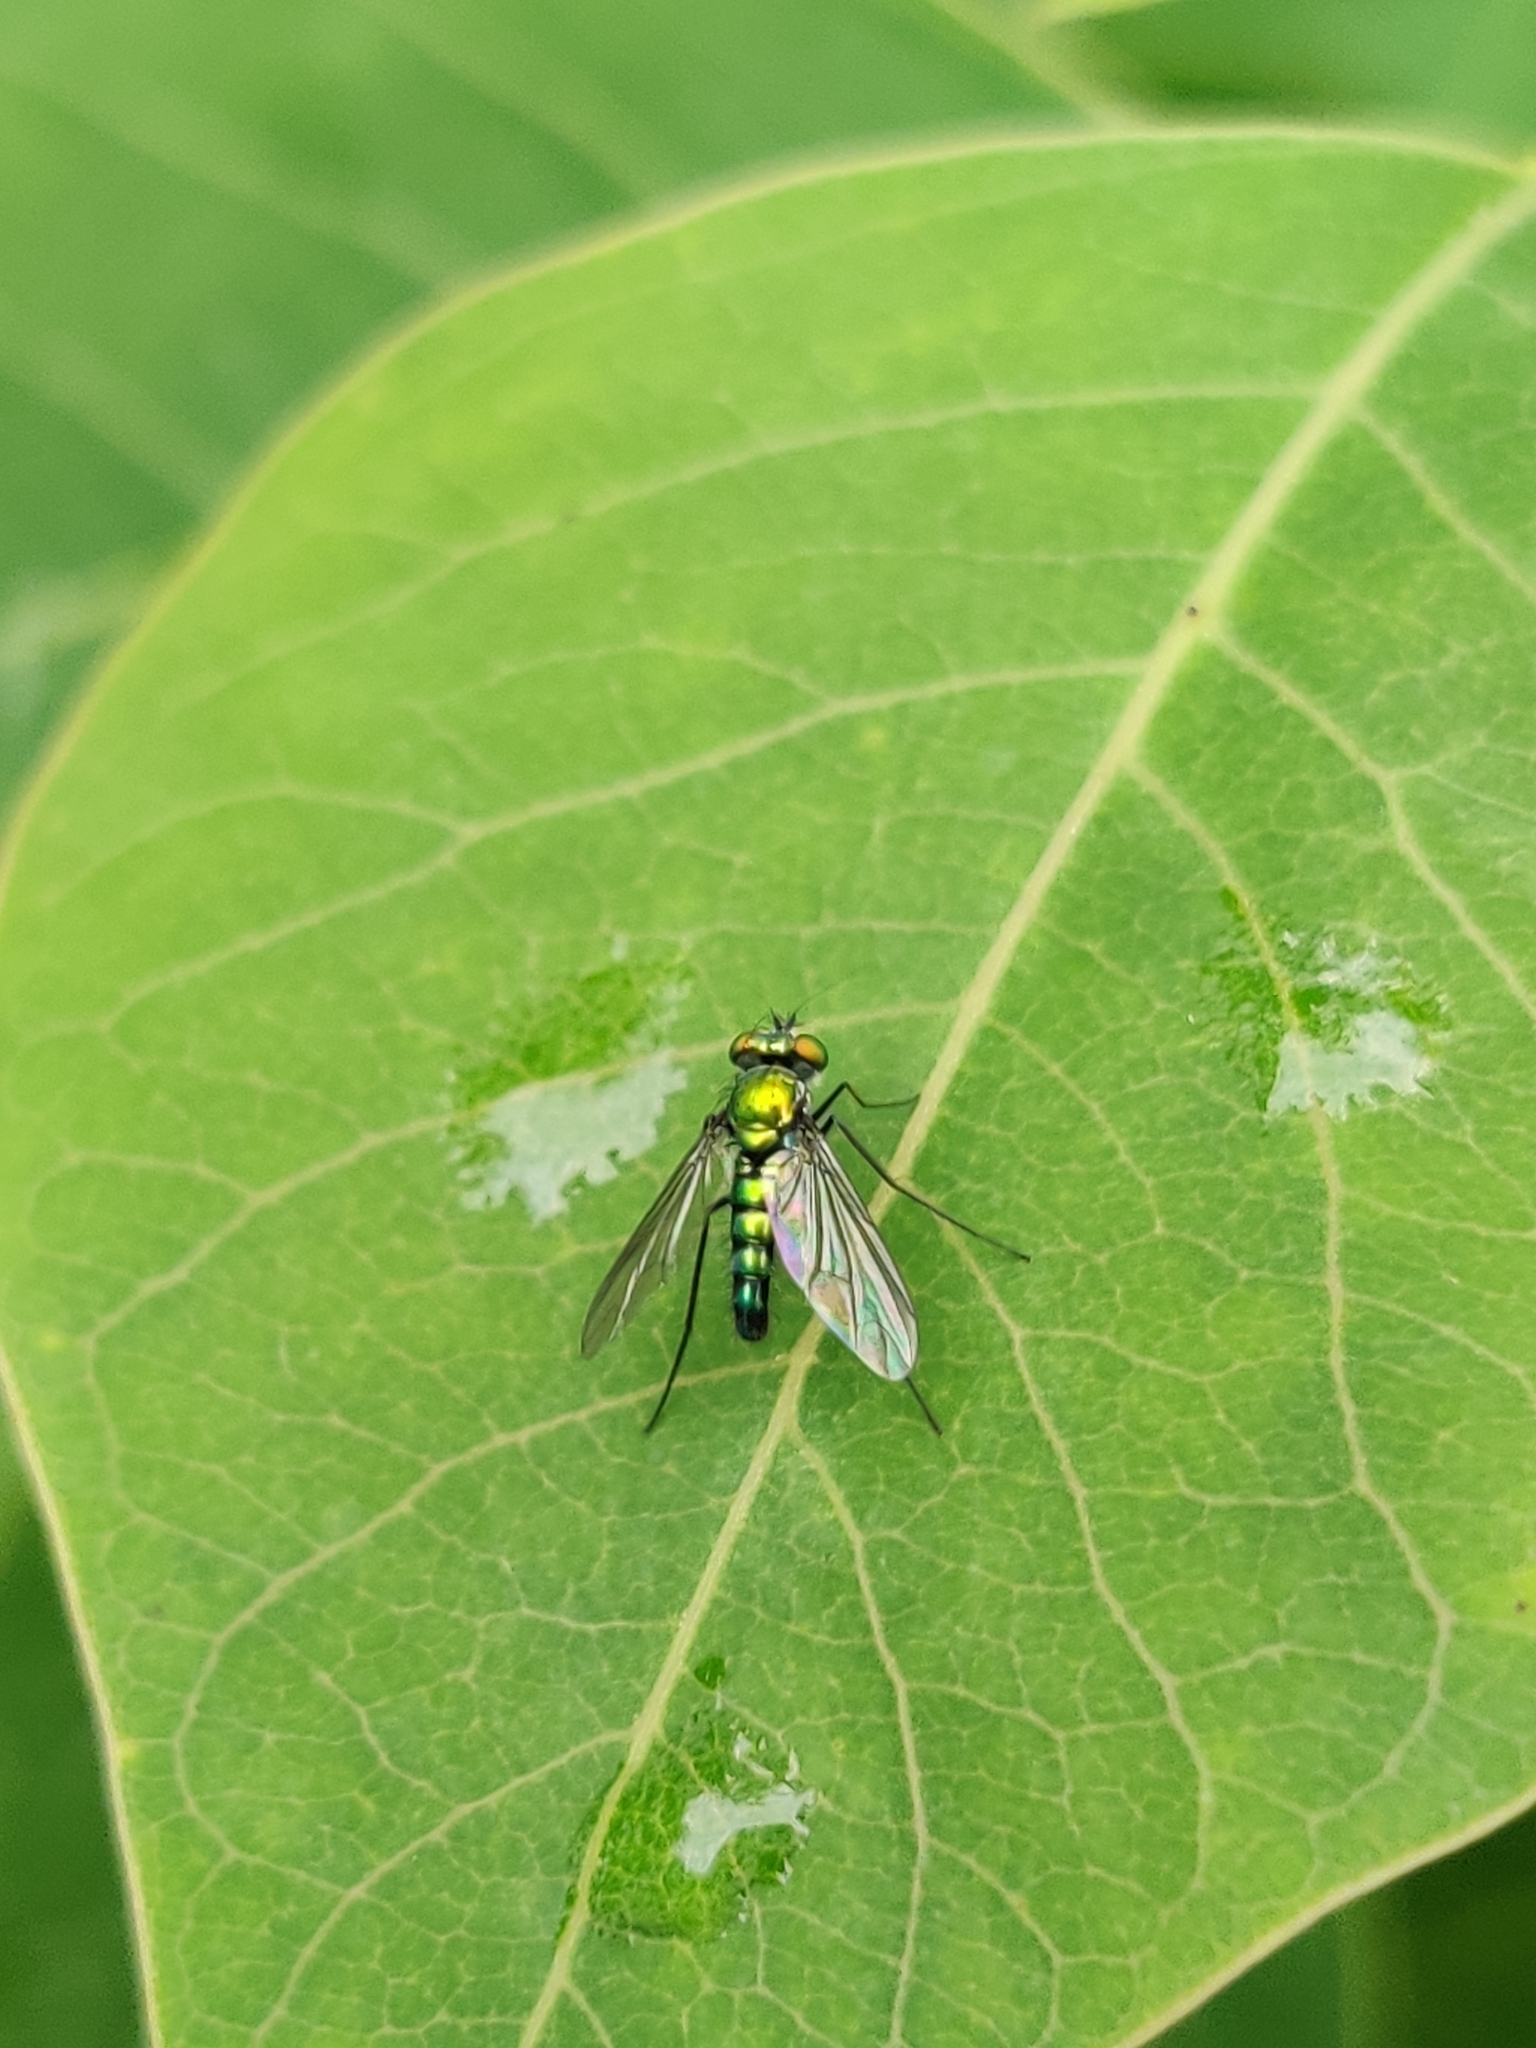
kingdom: Animalia
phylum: Arthropoda
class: Insecta
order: Diptera
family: Dolichopodidae
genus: Condylostylus
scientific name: Condylostylus longicornis
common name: Long-legged fly
